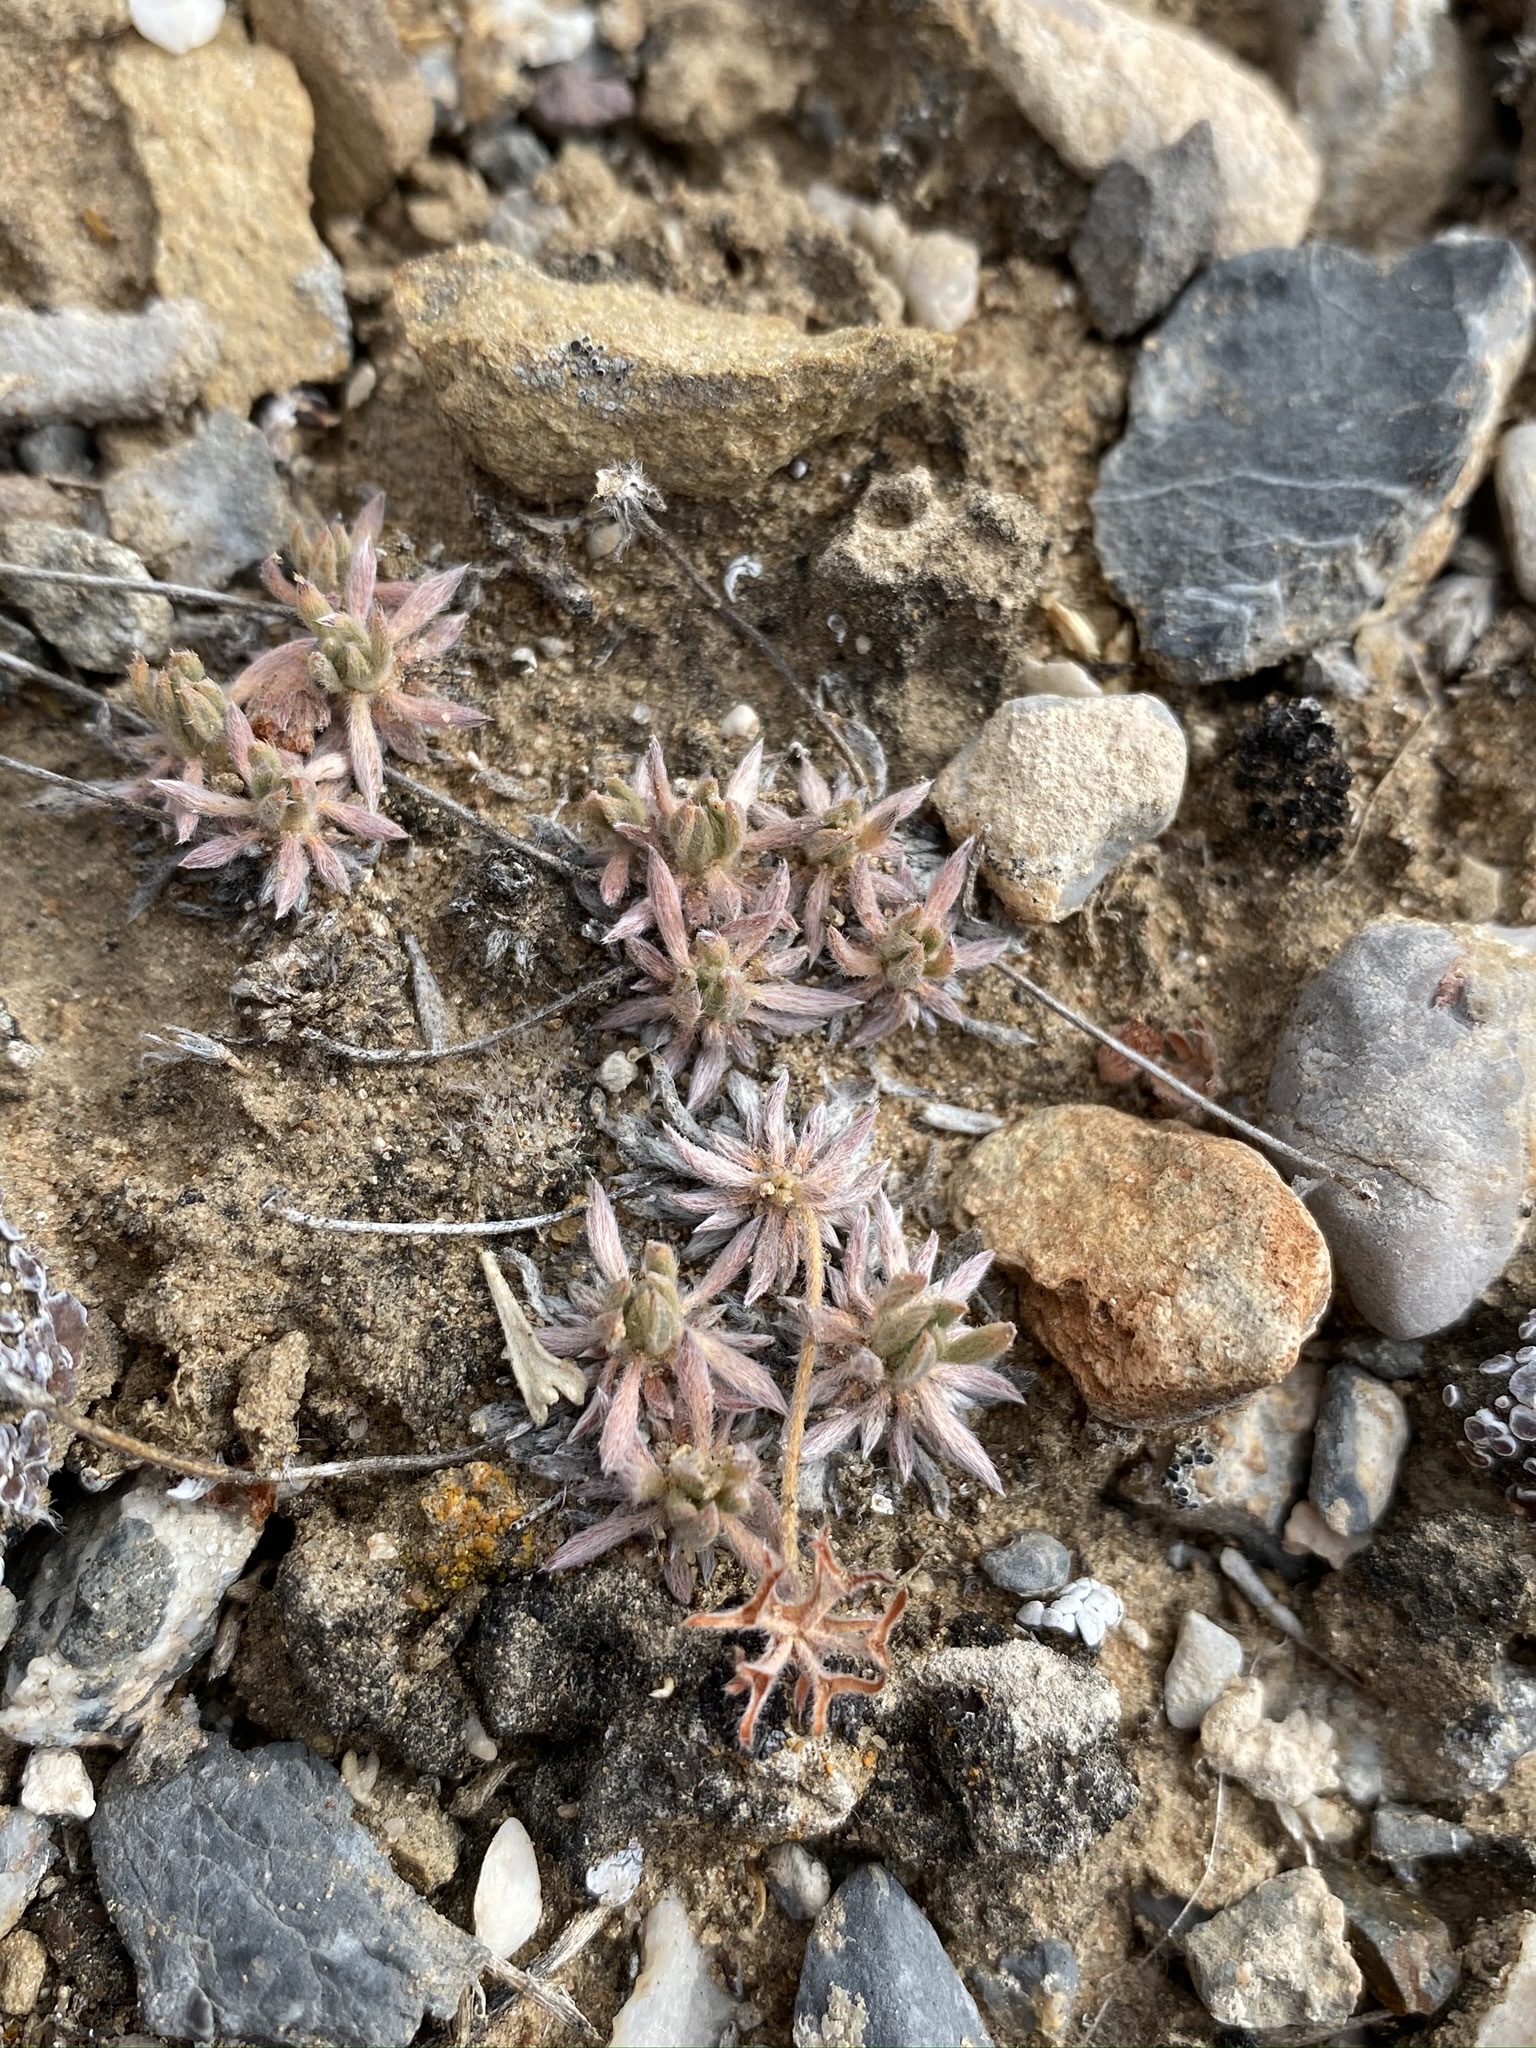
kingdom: Plantae
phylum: Tracheophyta
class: Magnoliopsida
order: Caryophyllales
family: Polygonaceae
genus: Eriogonum
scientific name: Eriogonum villiflorum
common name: Gray's wild buckwheat
